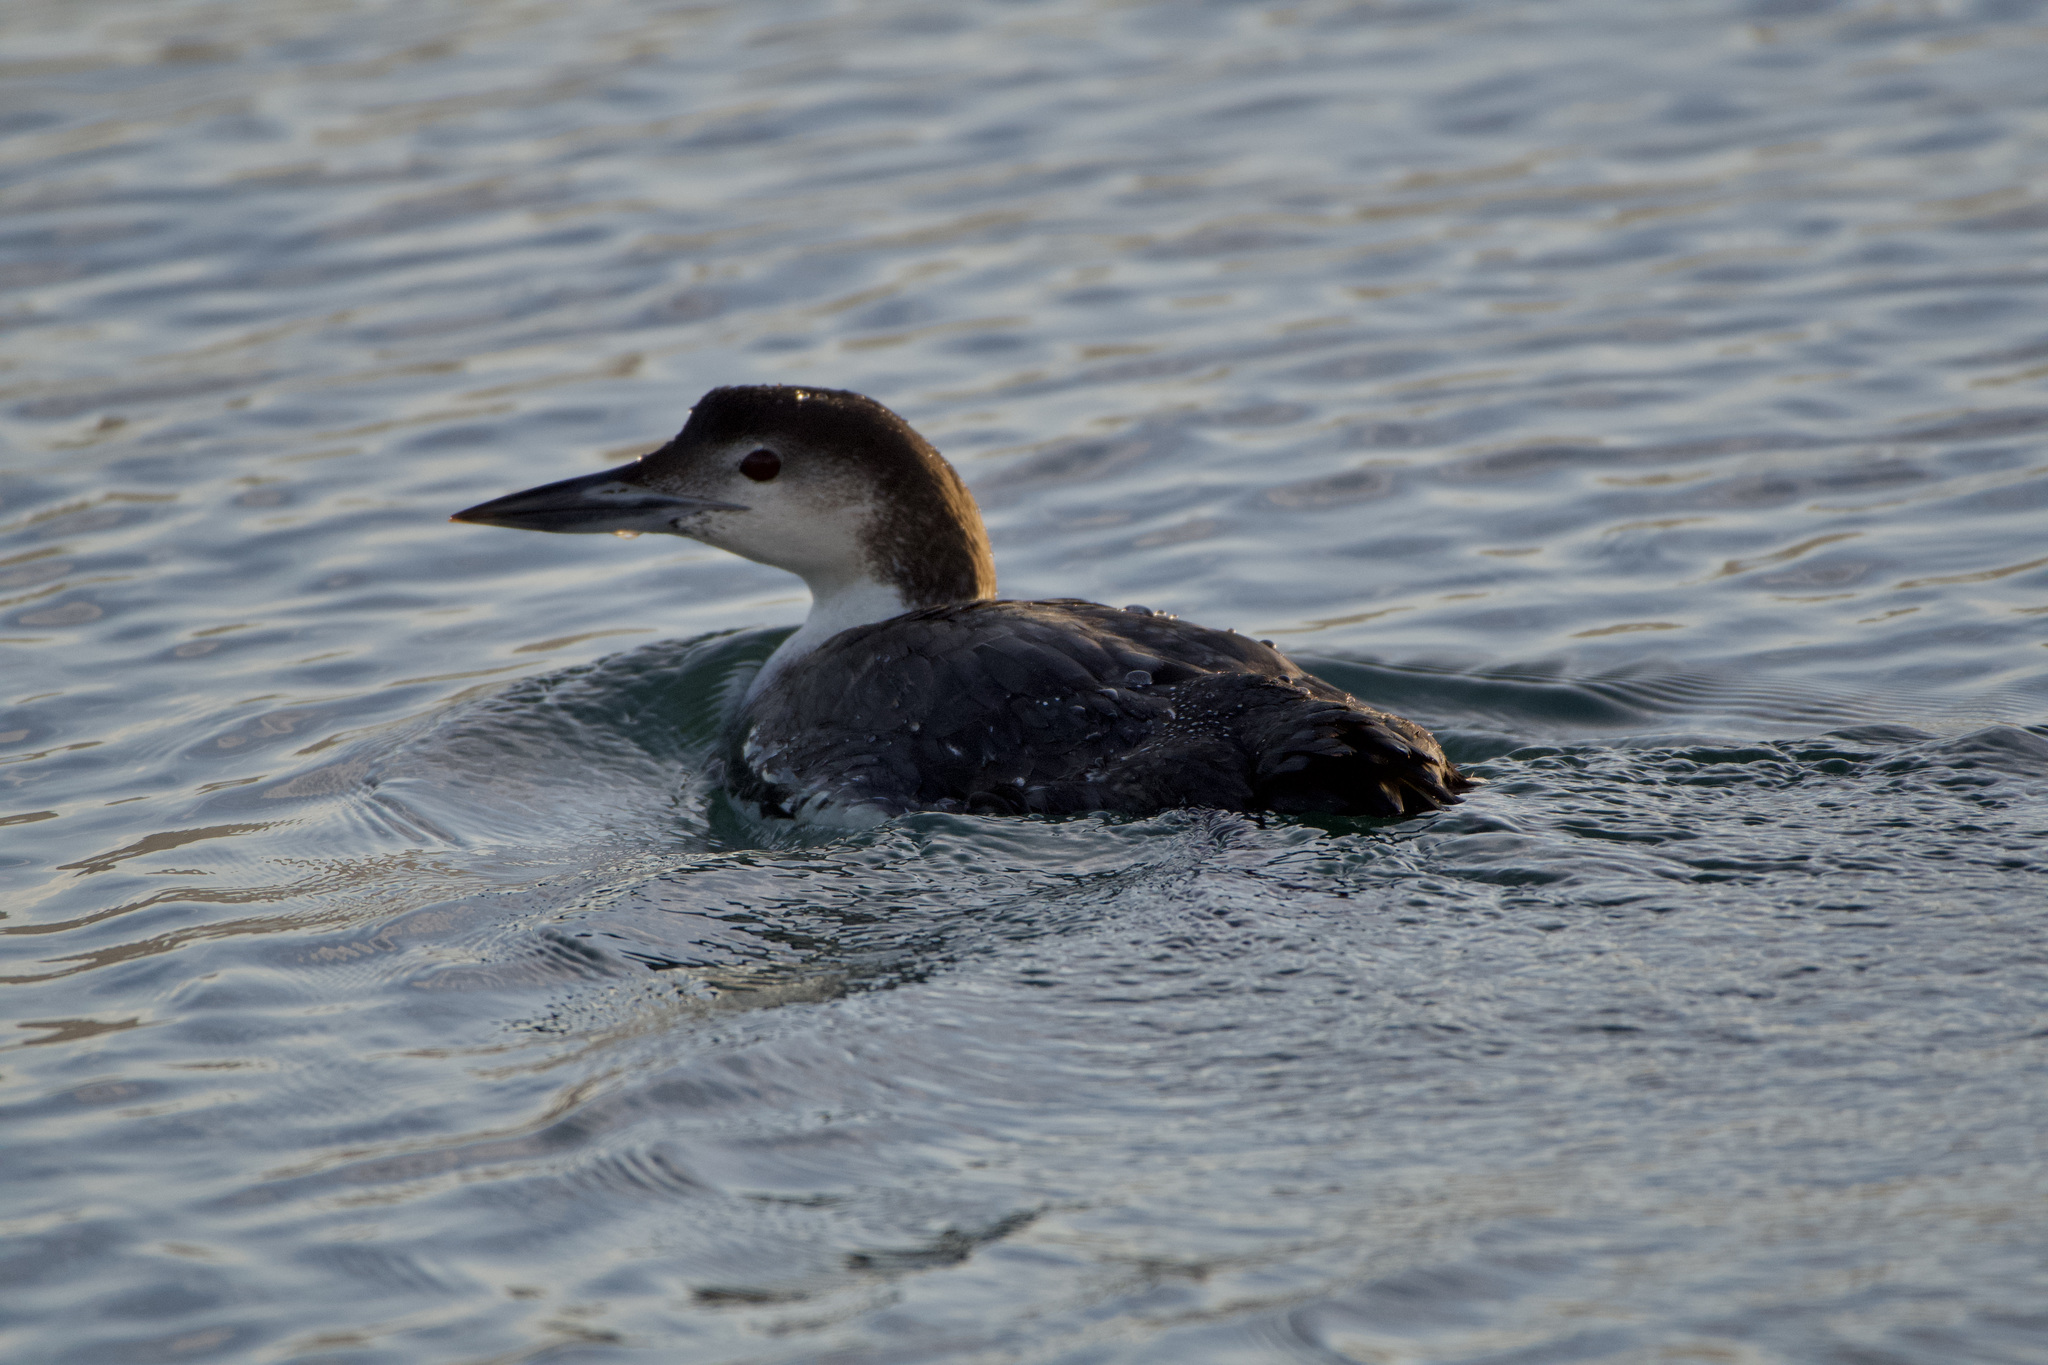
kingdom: Animalia
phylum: Chordata
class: Aves
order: Gaviiformes
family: Gaviidae
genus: Gavia
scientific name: Gavia immer
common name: Common loon
